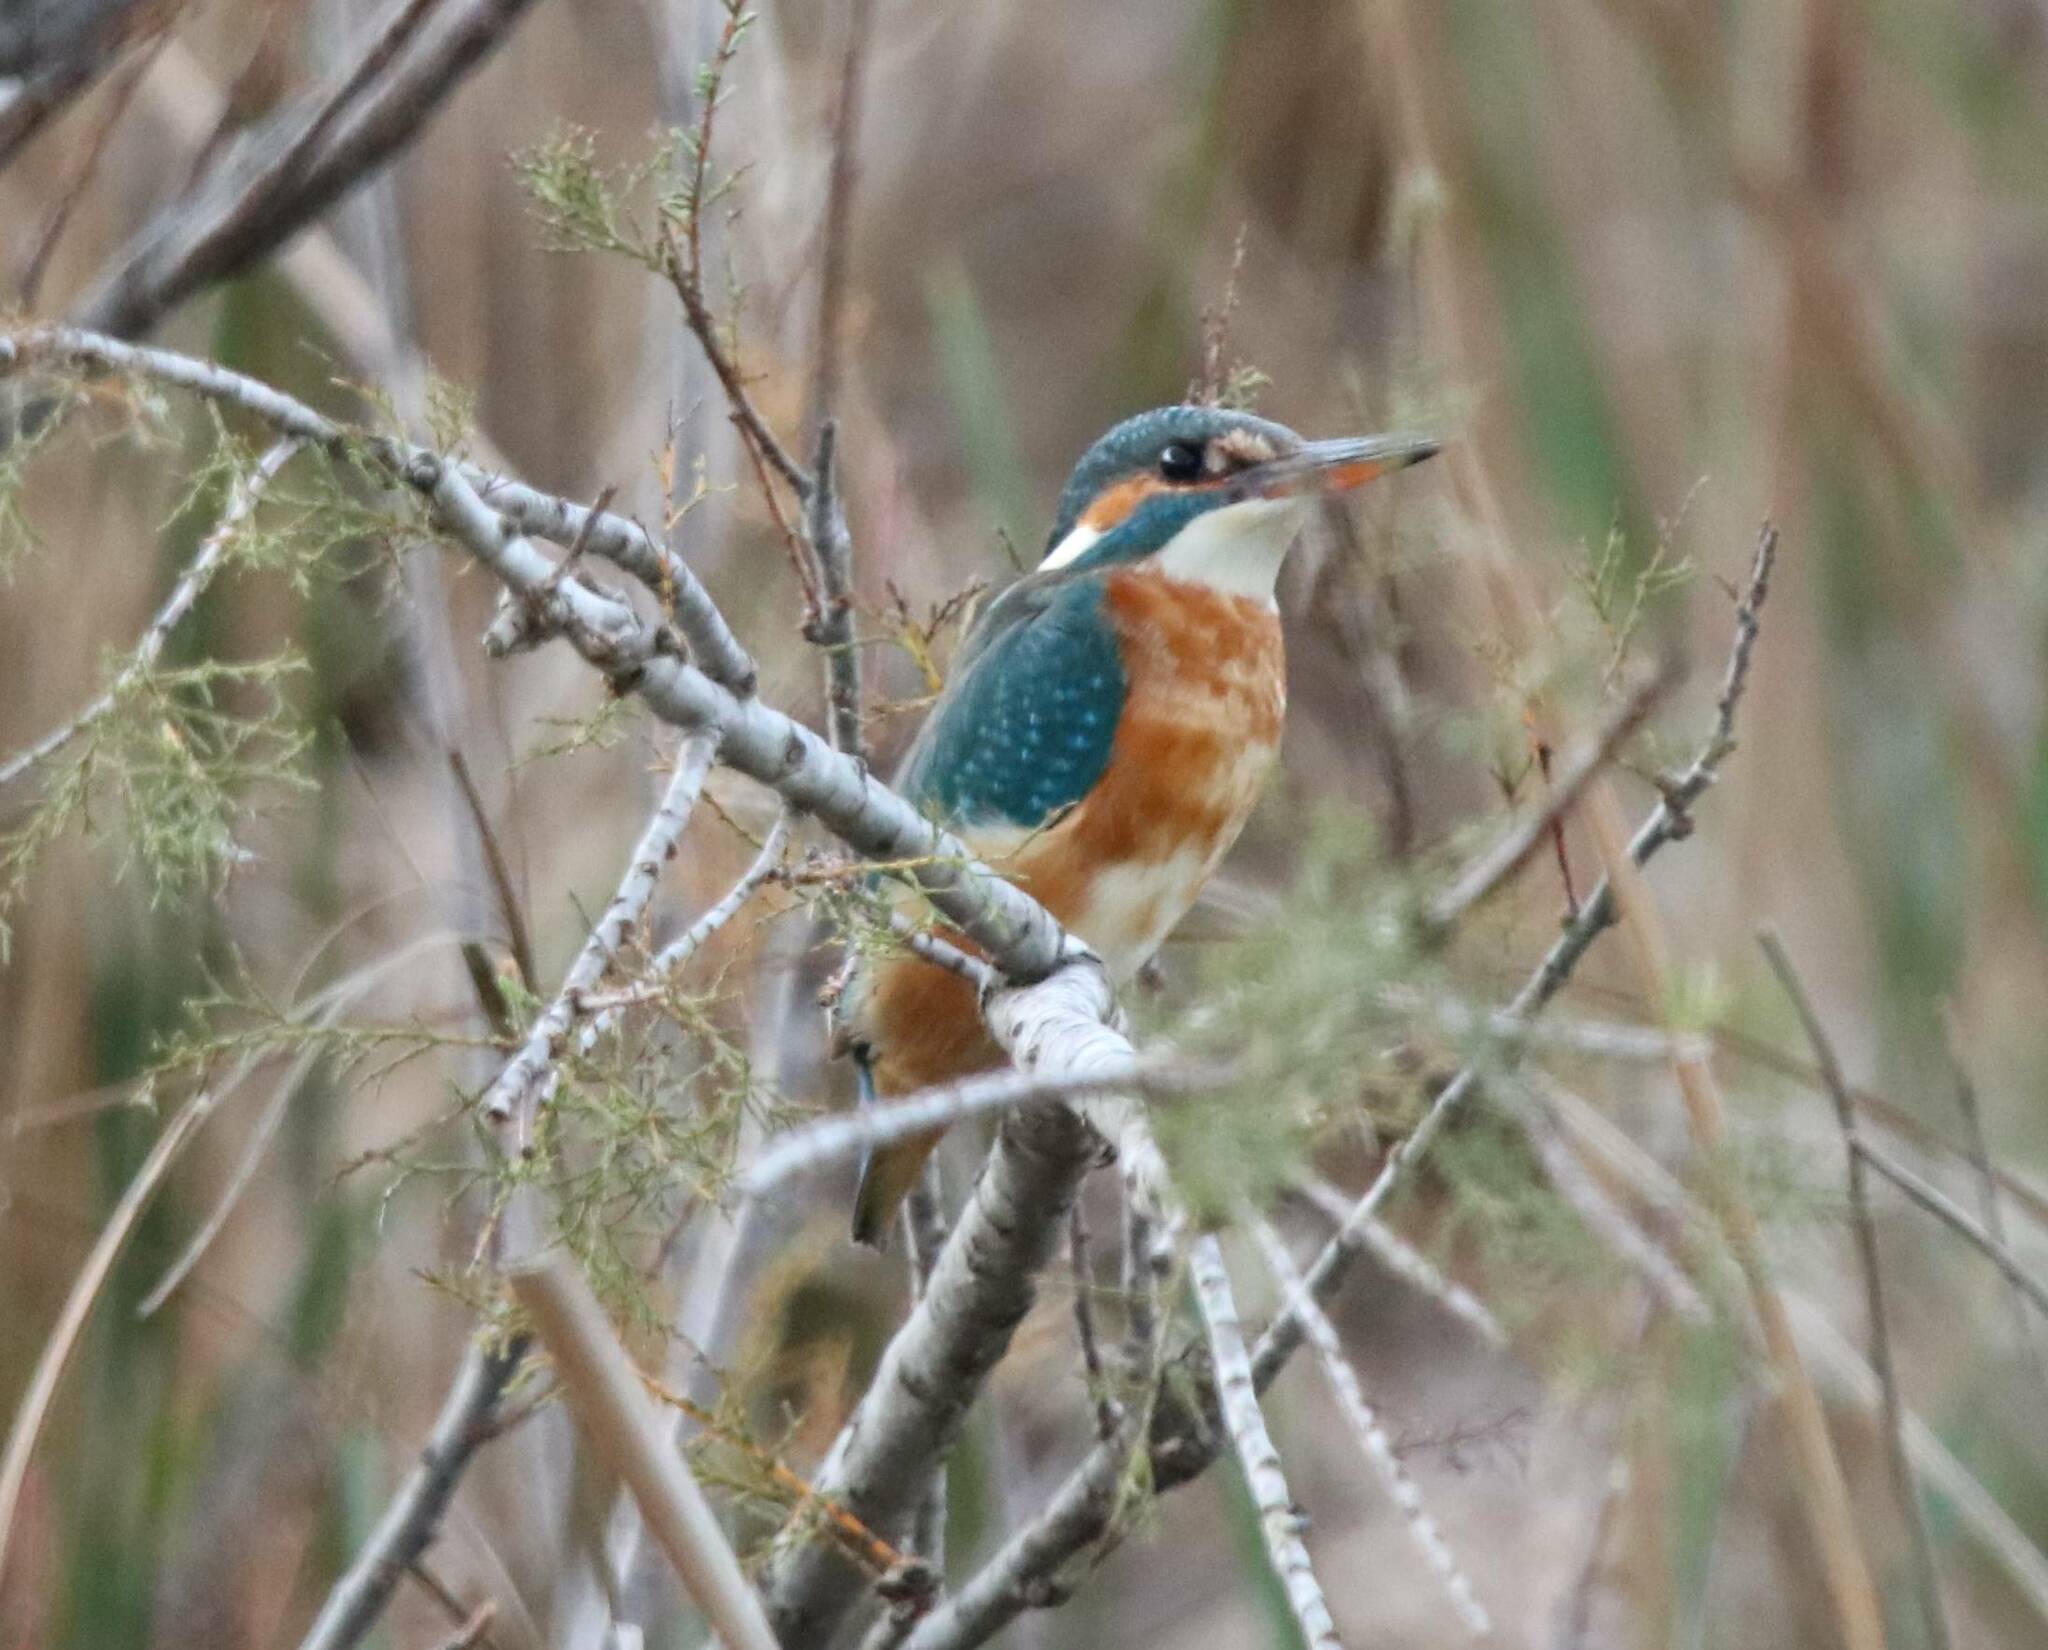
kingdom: Animalia
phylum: Chordata
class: Aves
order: Coraciiformes
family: Alcedinidae
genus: Alcedo
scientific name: Alcedo atthis
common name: Common kingfisher
